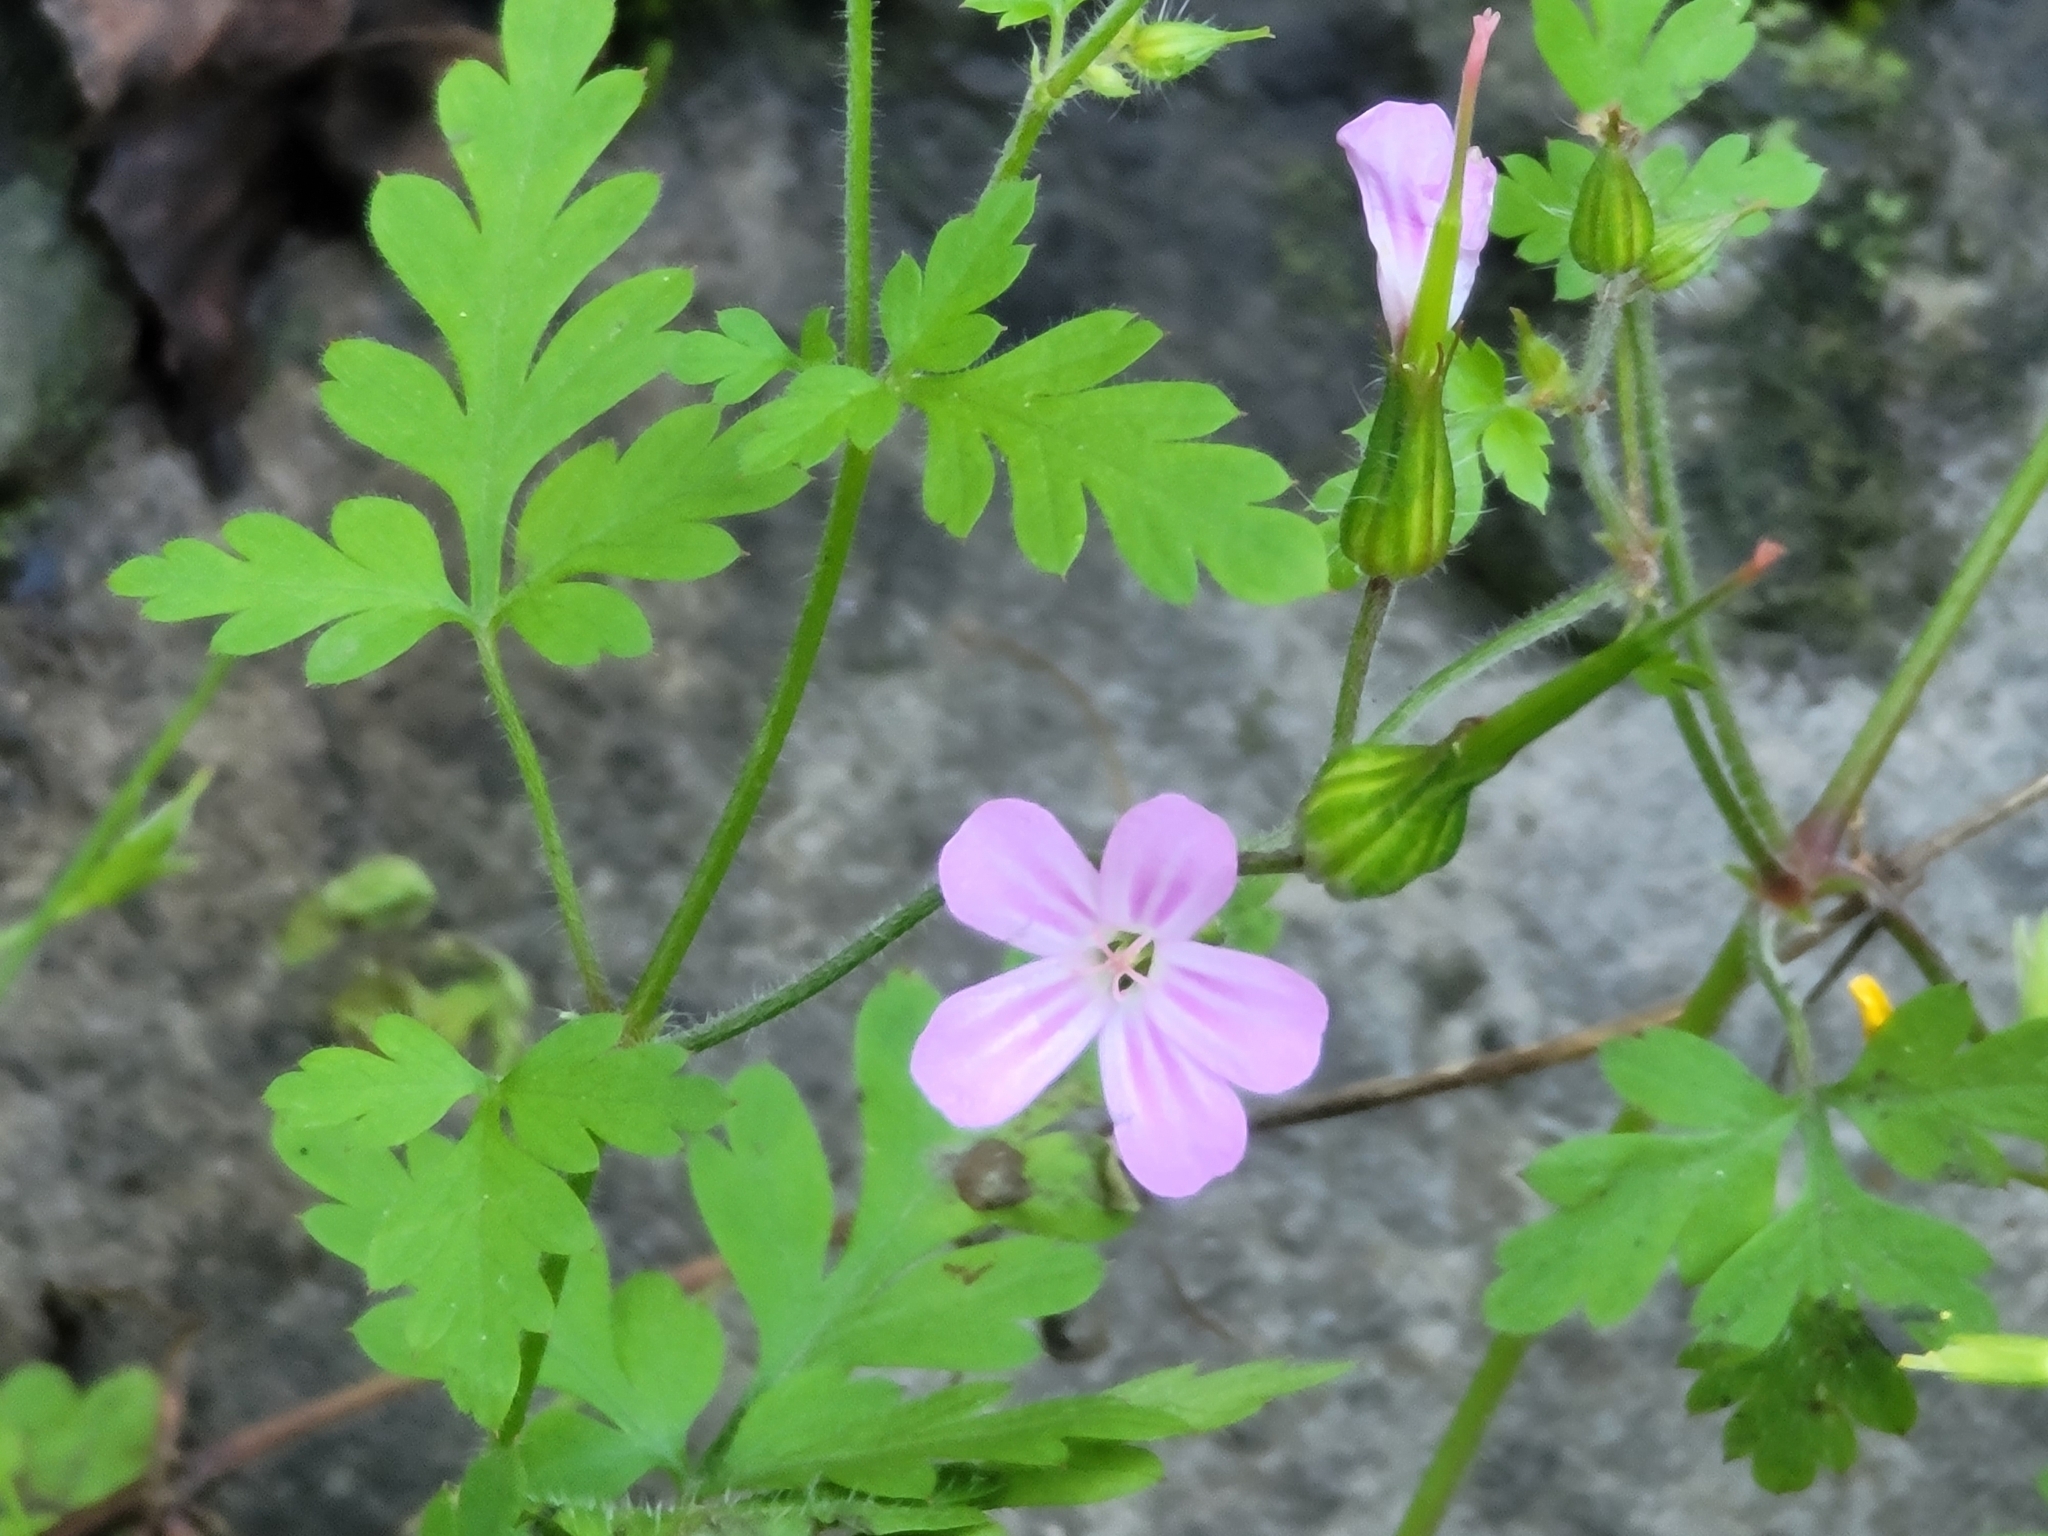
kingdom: Plantae
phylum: Tracheophyta
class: Magnoliopsida
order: Geraniales
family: Geraniaceae
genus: Geranium
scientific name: Geranium robertianum
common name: Herb-robert
